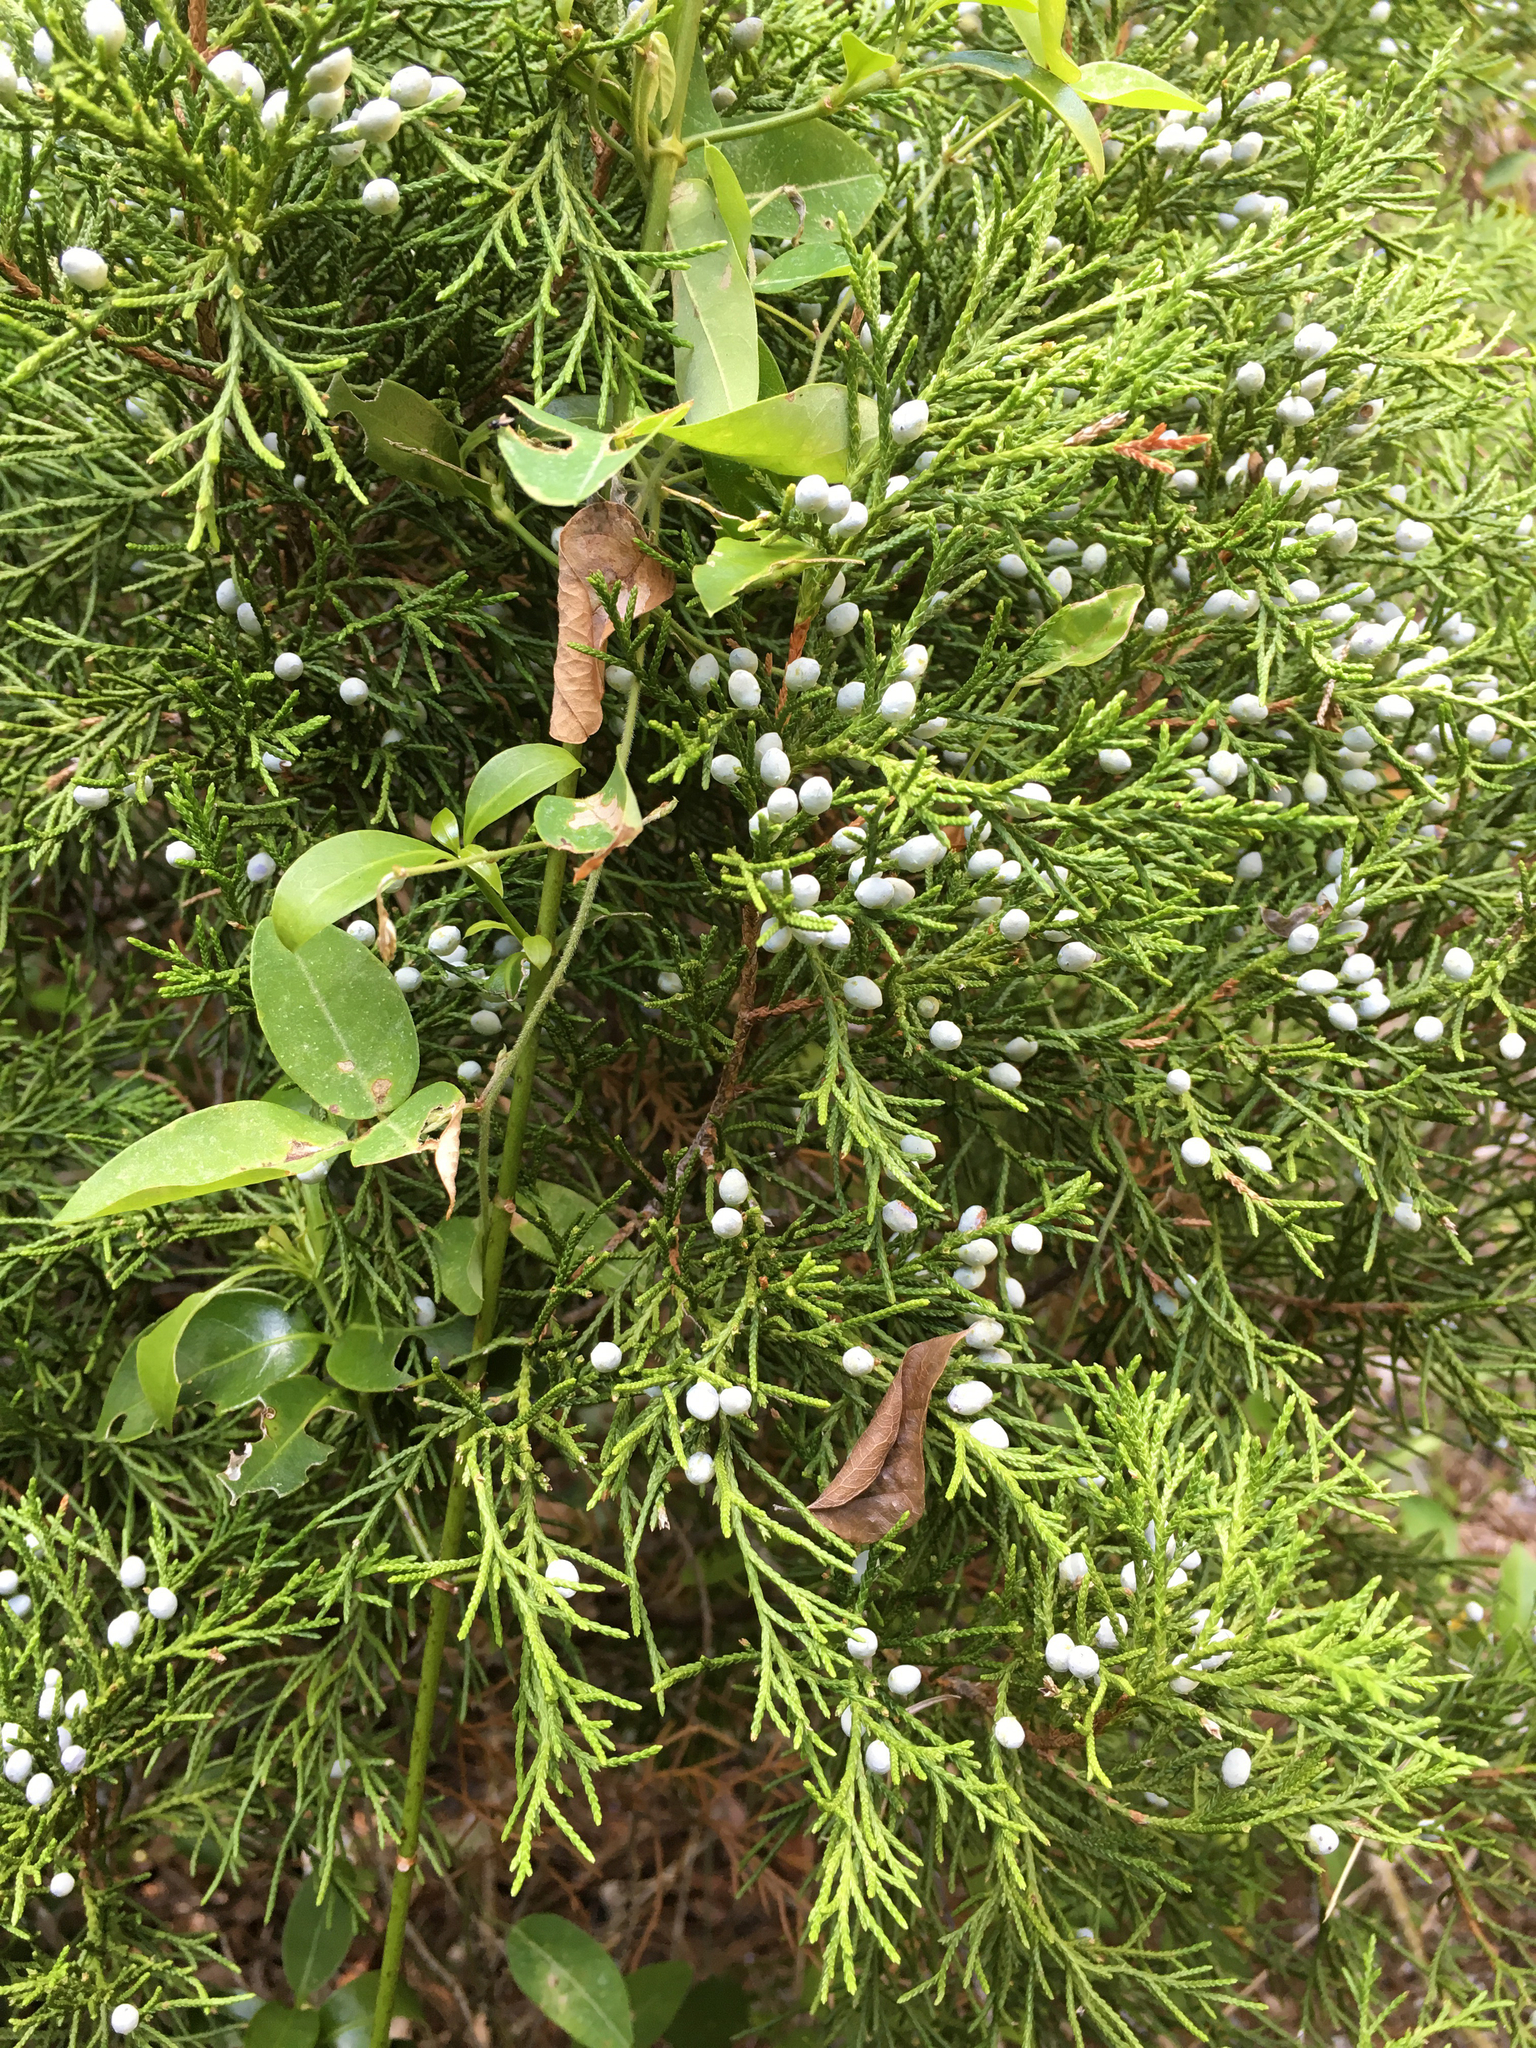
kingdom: Plantae
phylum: Tracheophyta
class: Pinopsida
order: Pinales
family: Cupressaceae
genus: Juniperus
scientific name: Juniperus virginiana
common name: Red juniper
